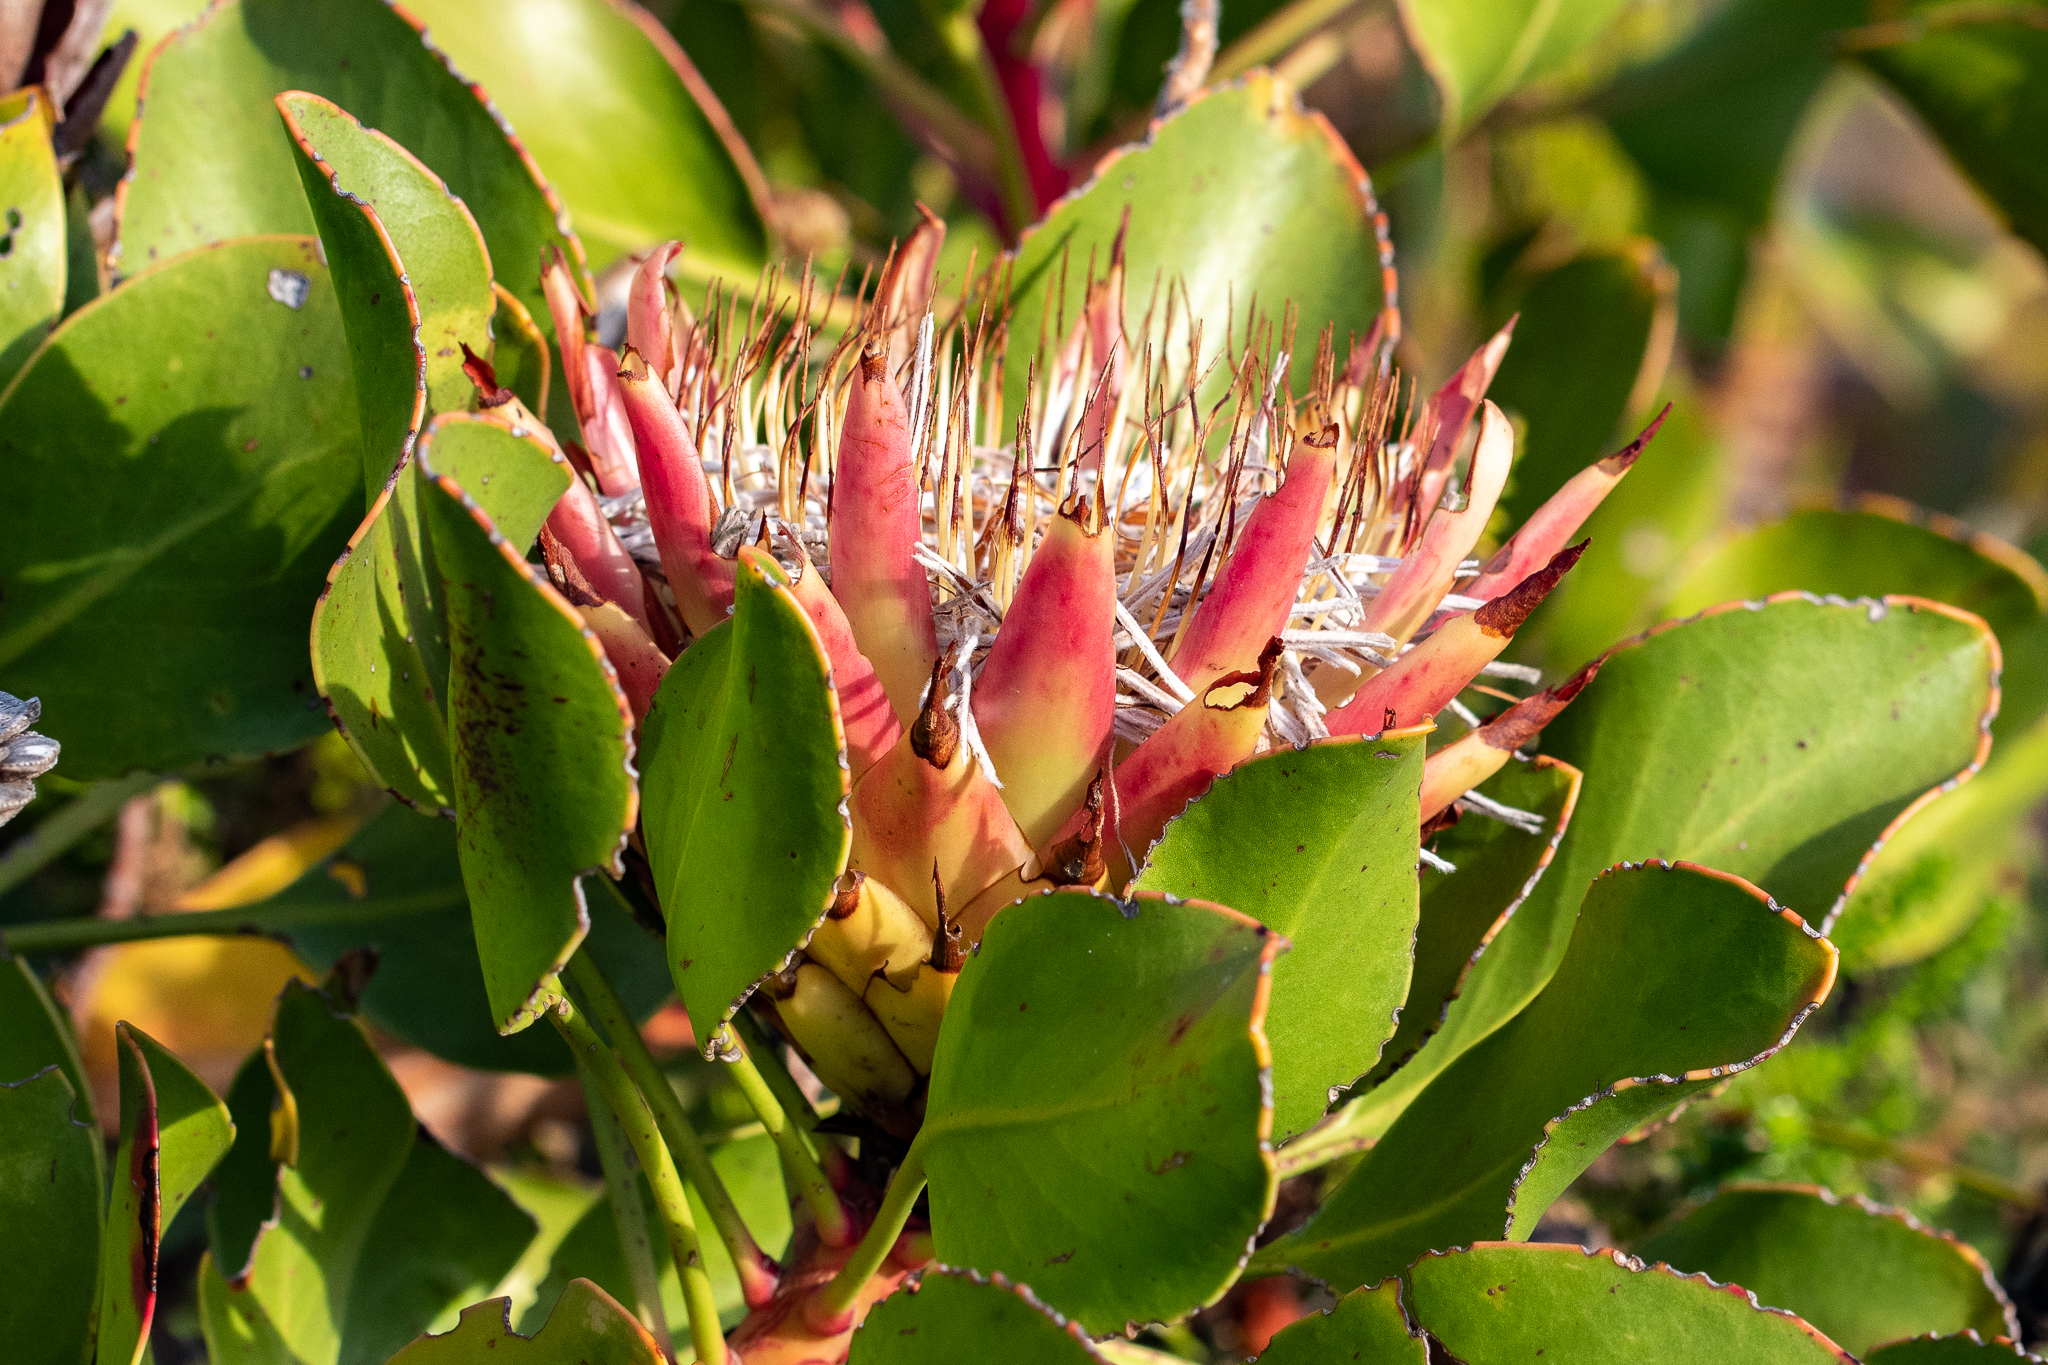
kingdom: Plantae
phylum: Tracheophyta
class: Magnoliopsida
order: Proteales
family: Proteaceae
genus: Protea
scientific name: Protea cynaroides
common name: King protea
